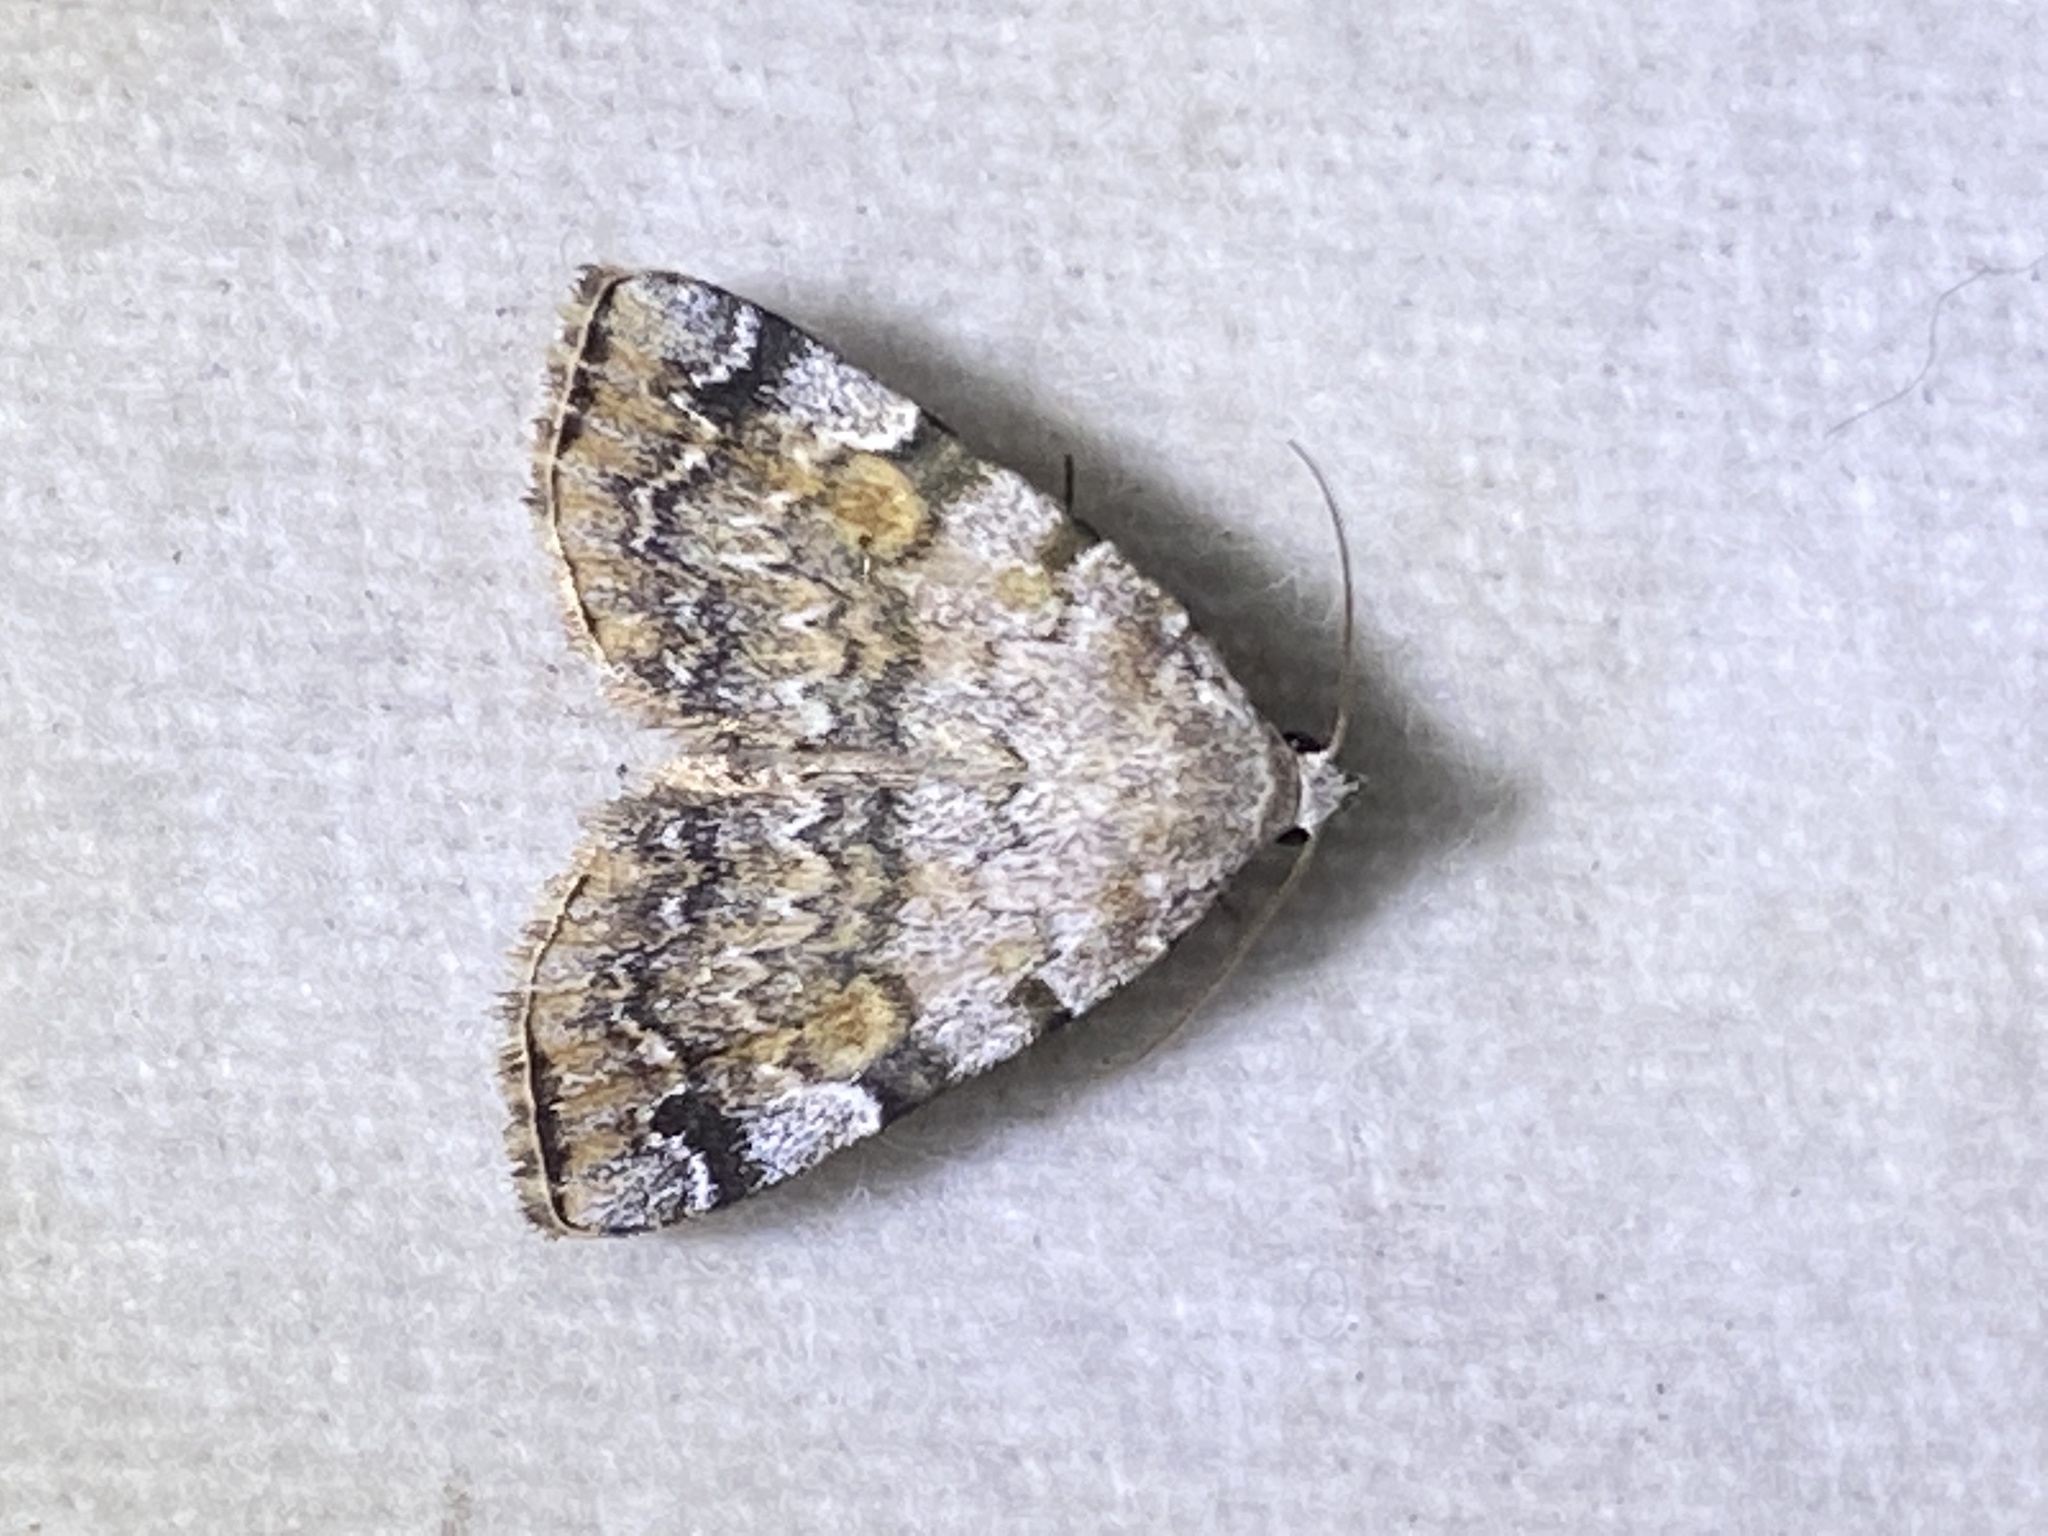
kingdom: Animalia
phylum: Arthropoda
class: Insecta
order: Lepidoptera
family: Erebidae
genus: Idia
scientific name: Idia americalis
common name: American idia moth
